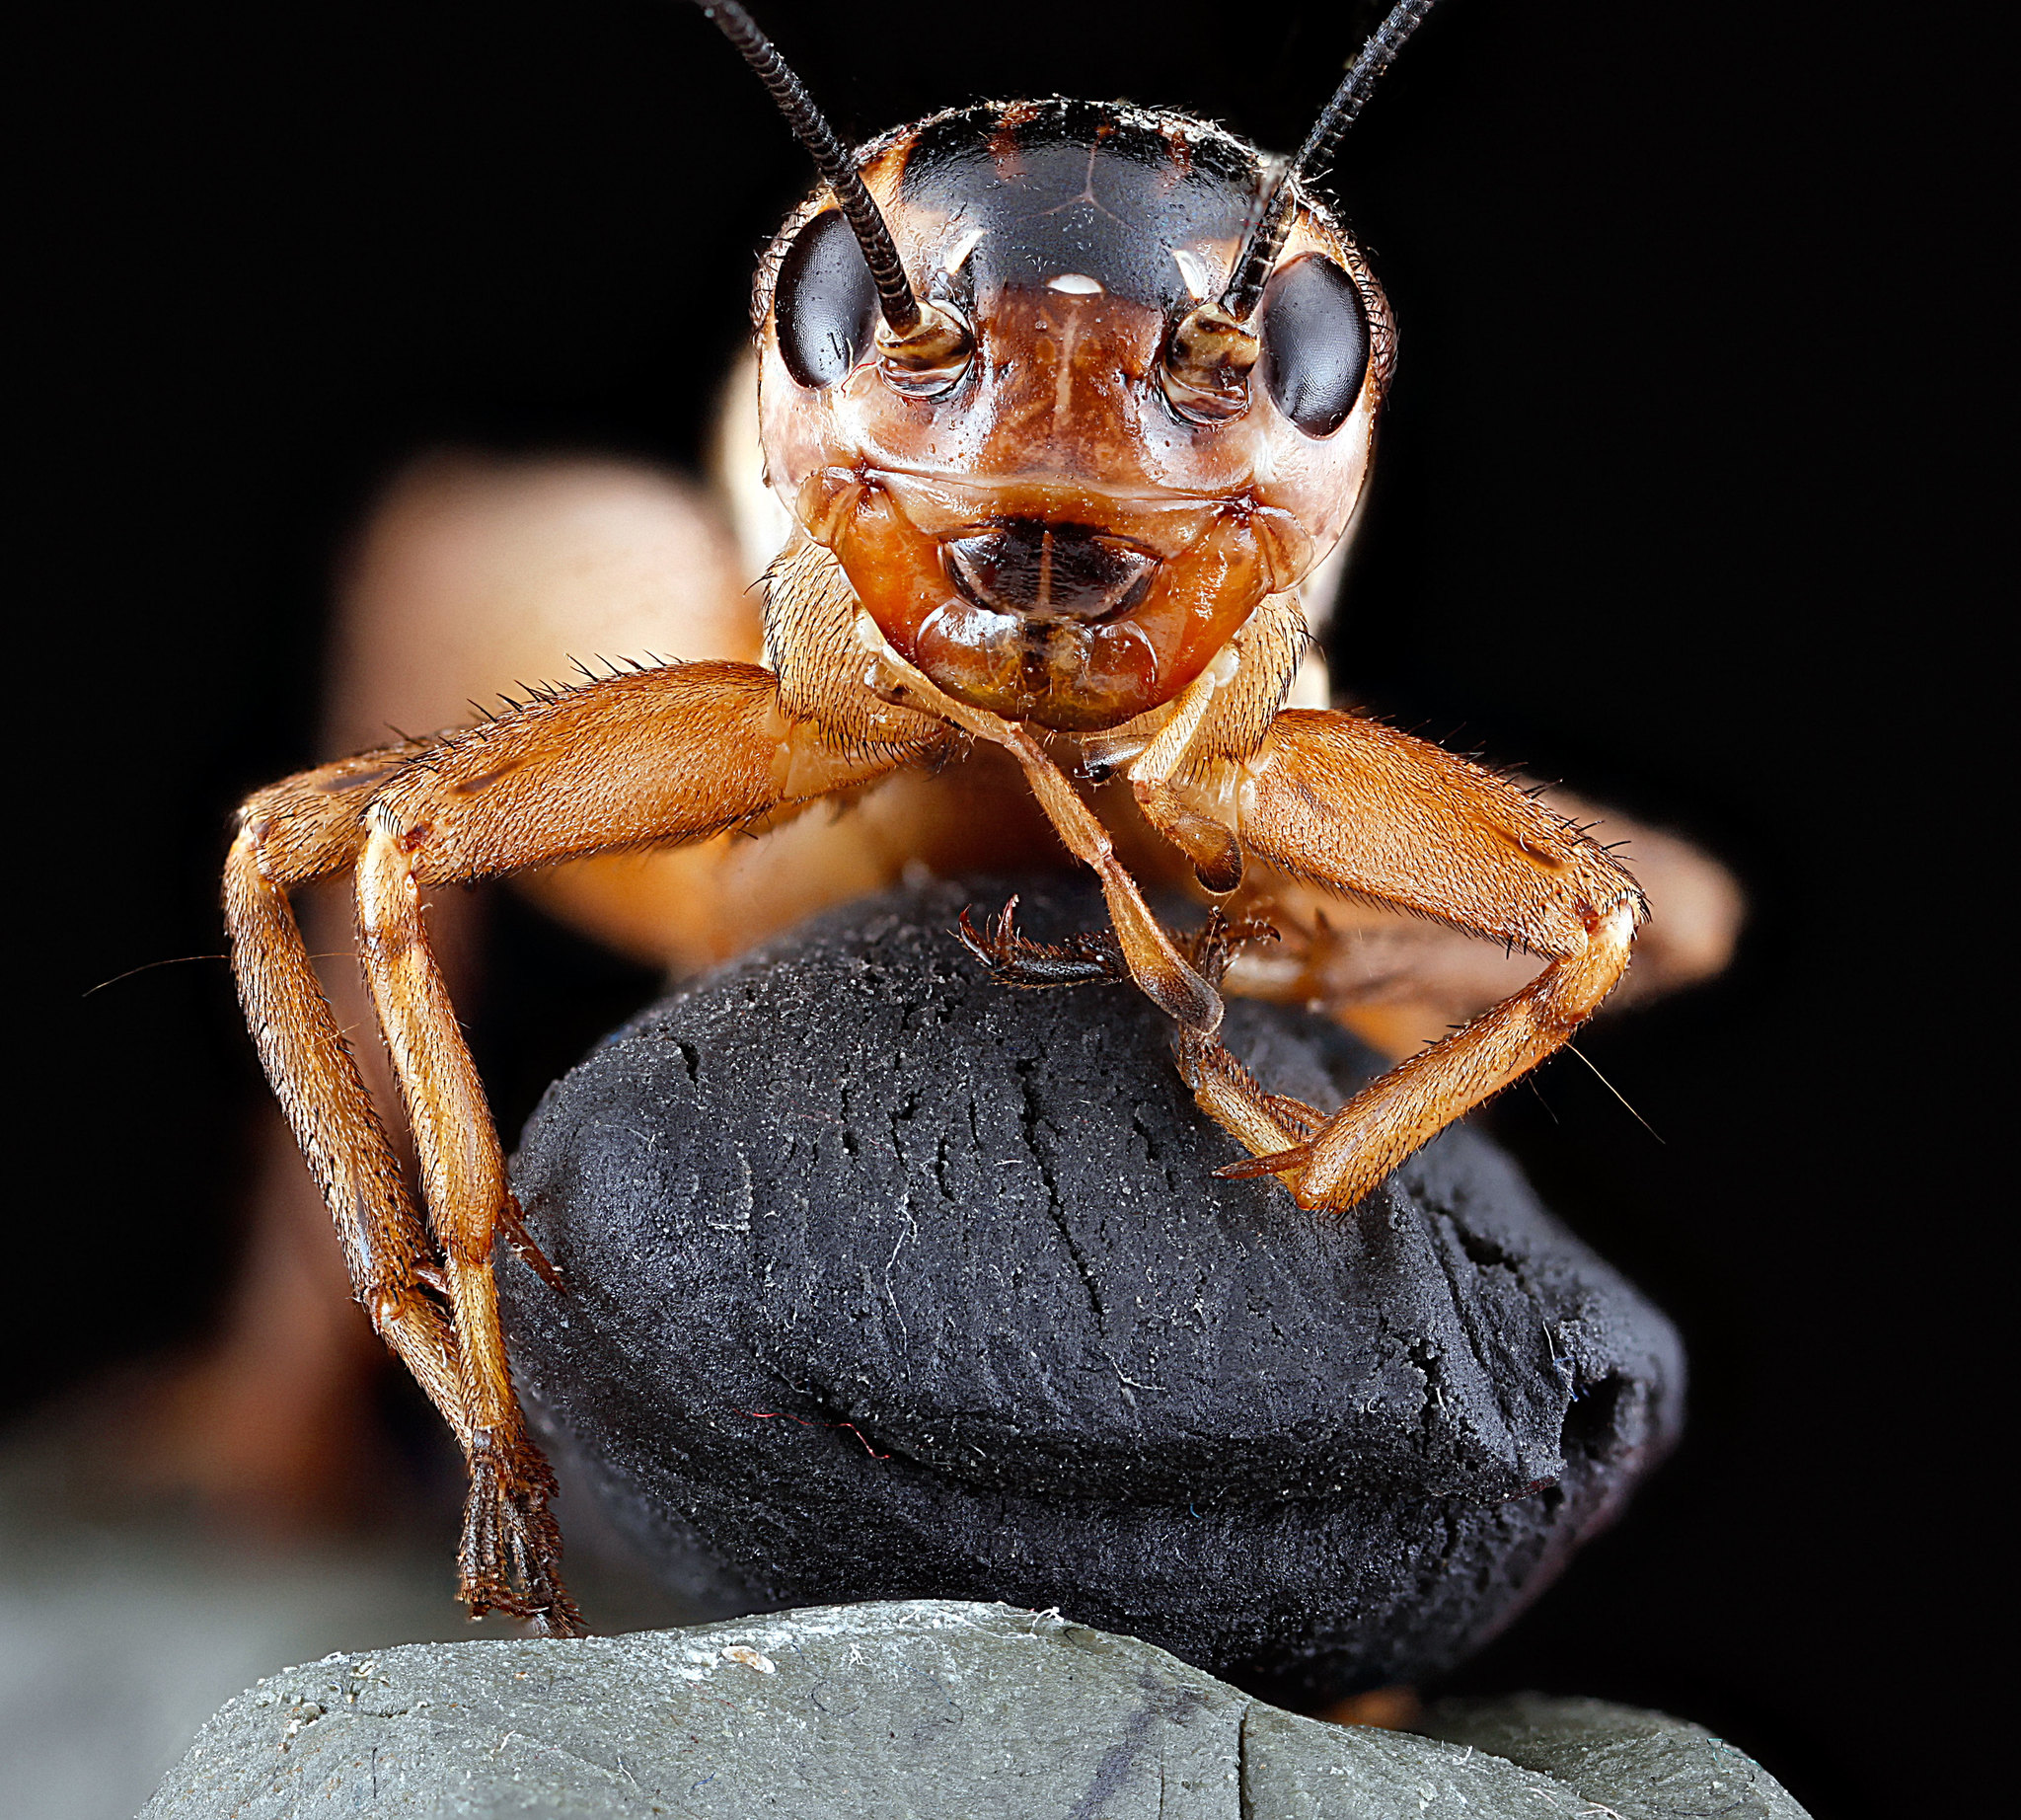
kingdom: Animalia
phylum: Arthropoda
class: Insecta
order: Orthoptera
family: Gryllidae
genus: Velarifictorus
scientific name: Velarifictorus micado
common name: Japanese burrowing cricket
